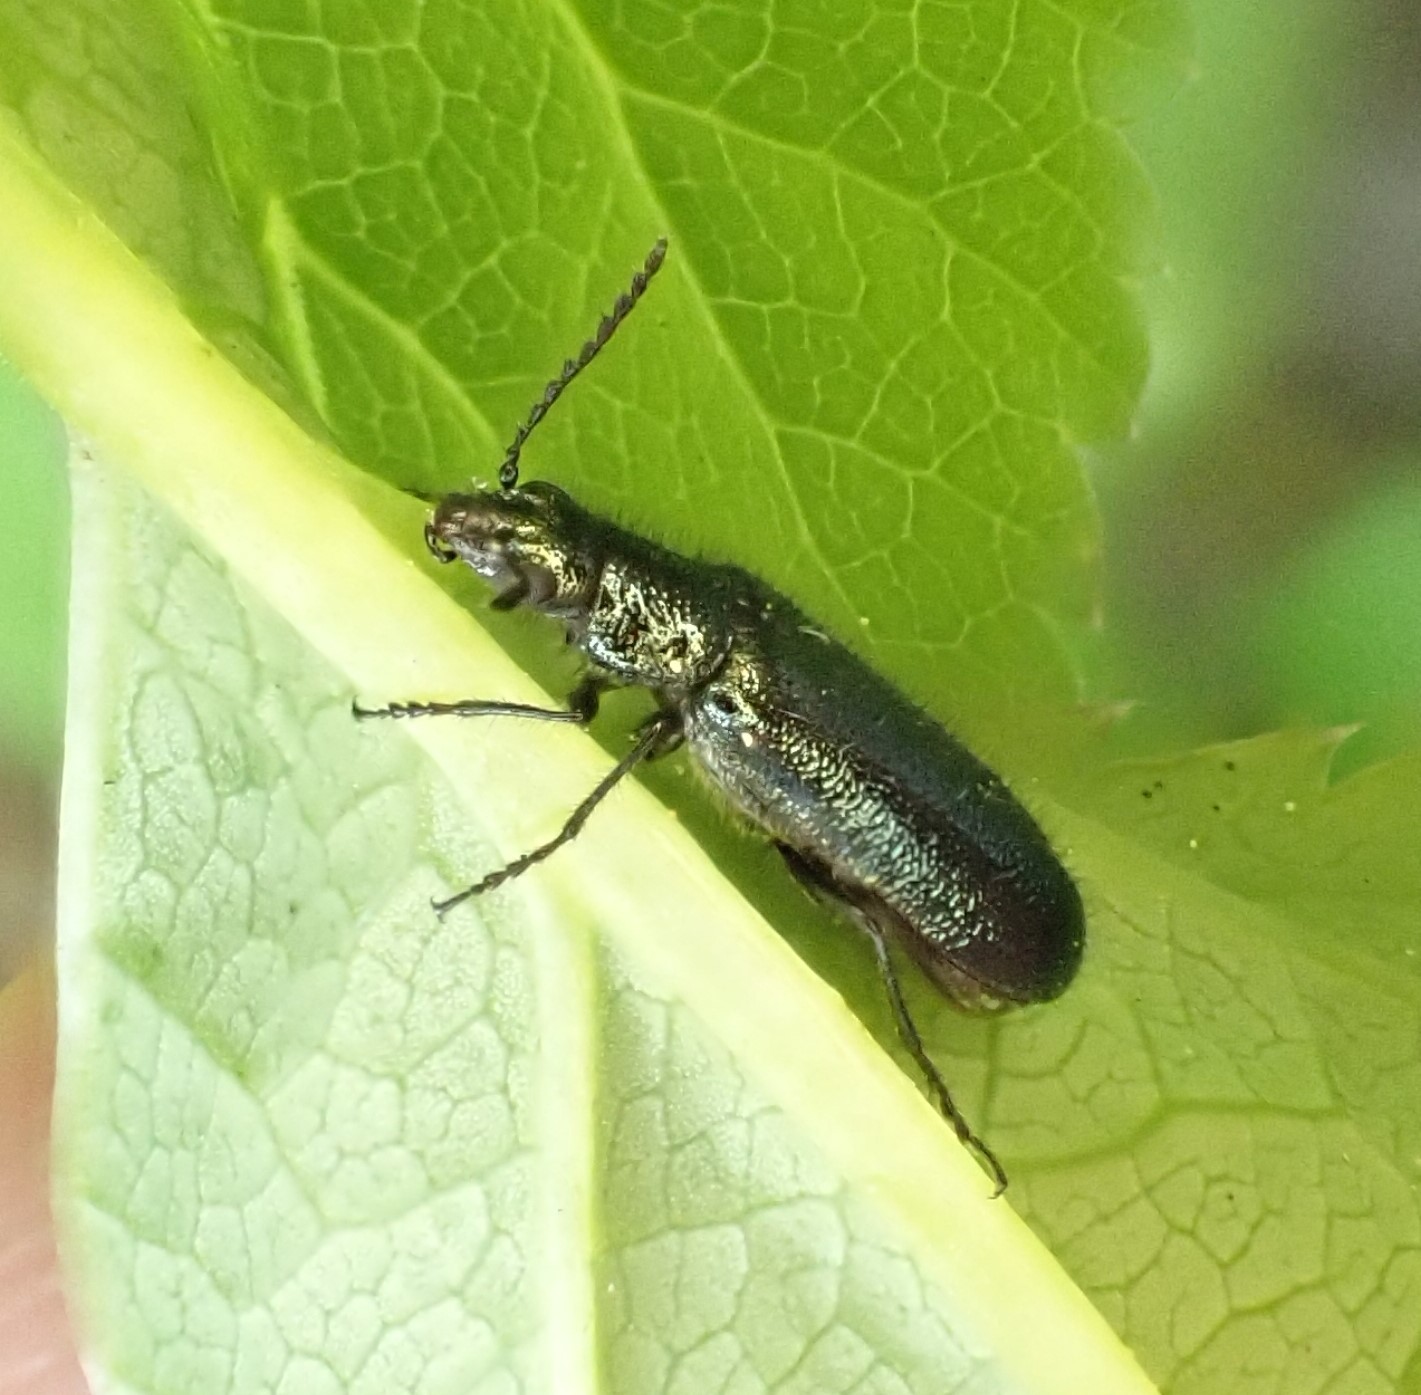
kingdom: Animalia
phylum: Arthropoda
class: Insecta
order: Coleoptera
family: Melyridae
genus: Dasytes
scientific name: Dasytes caeruleus
